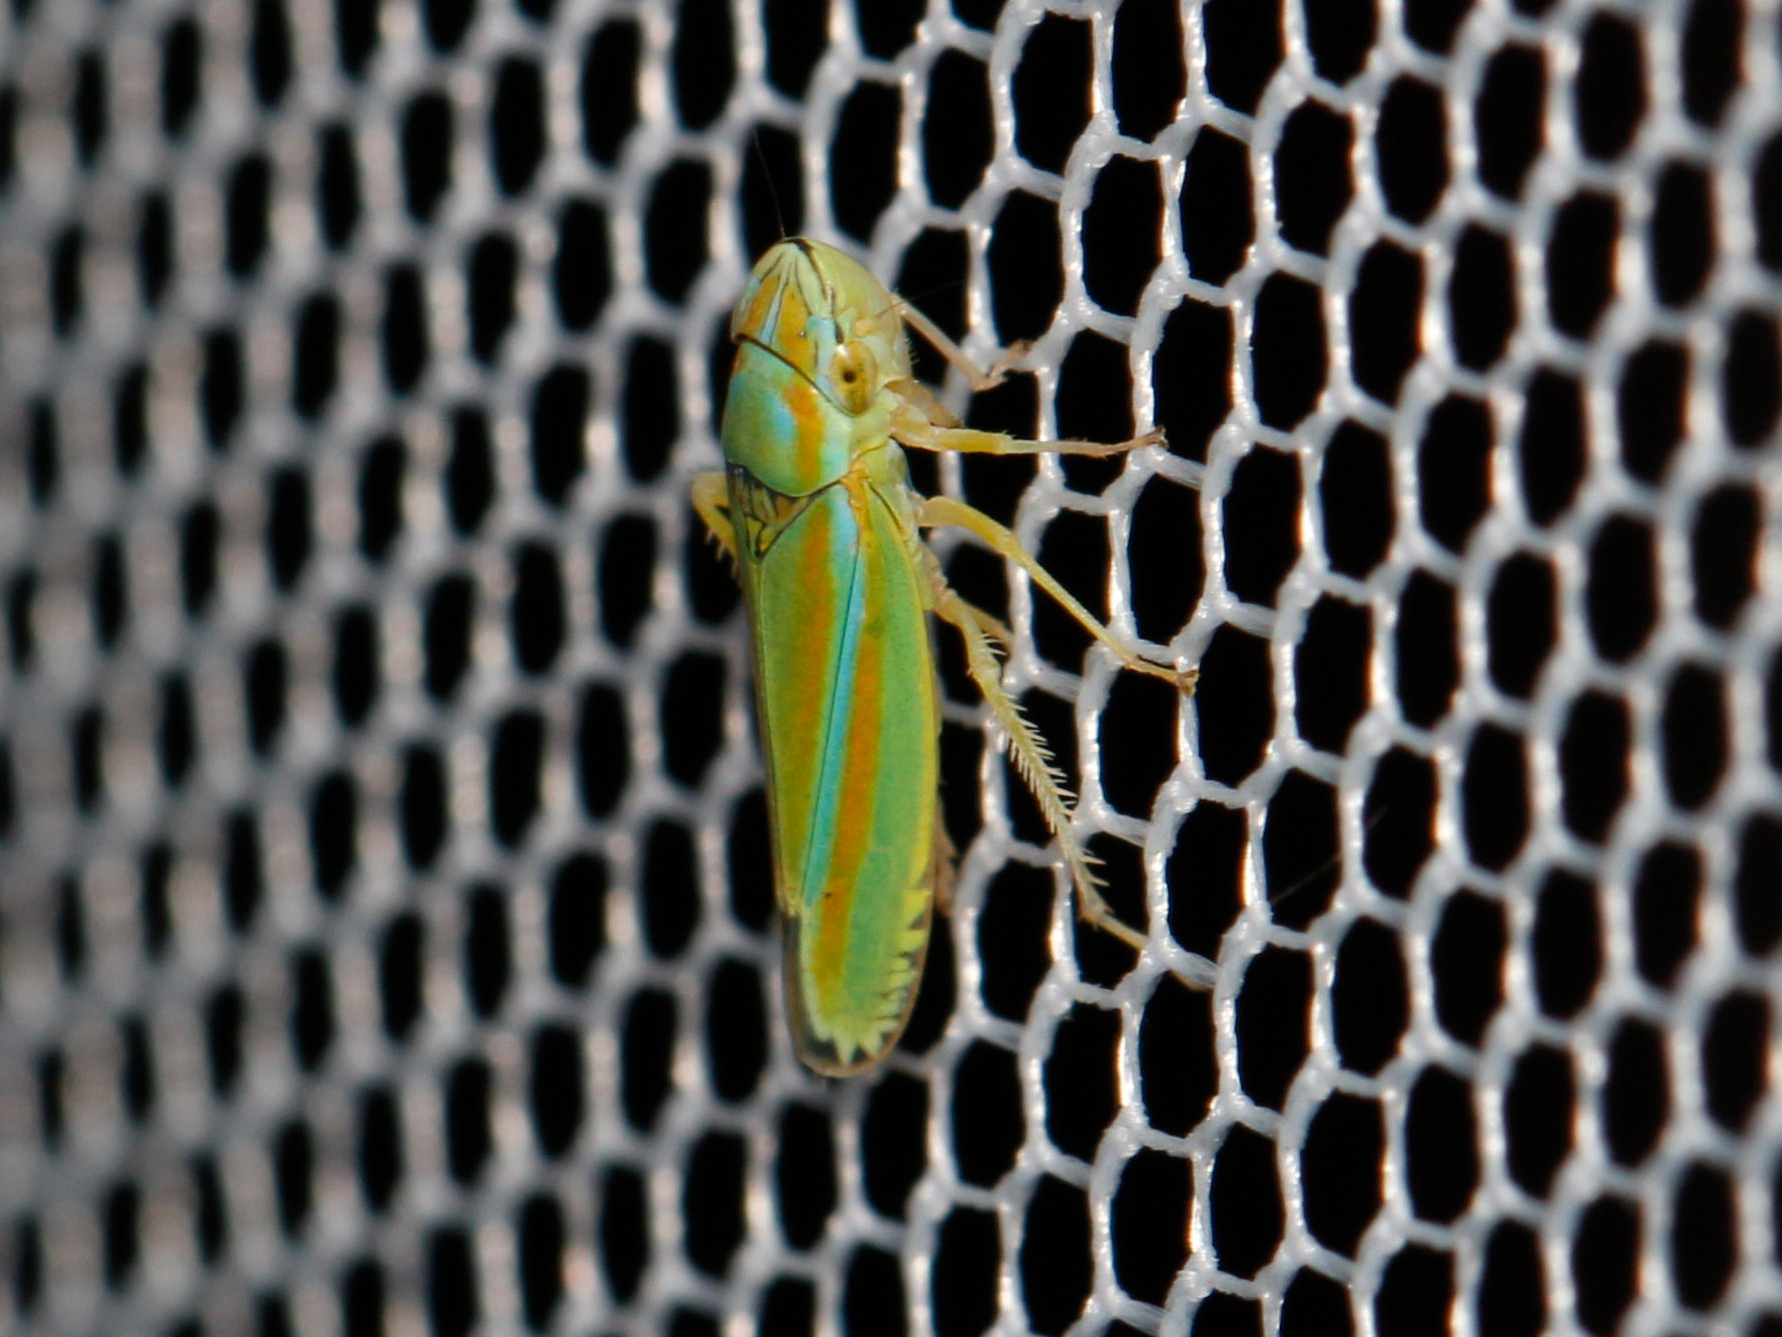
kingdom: Animalia
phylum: Arthropoda
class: Insecta
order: Hemiptera
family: Cicadellidae
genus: Graphocephala
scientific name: Graphocephala versuta
